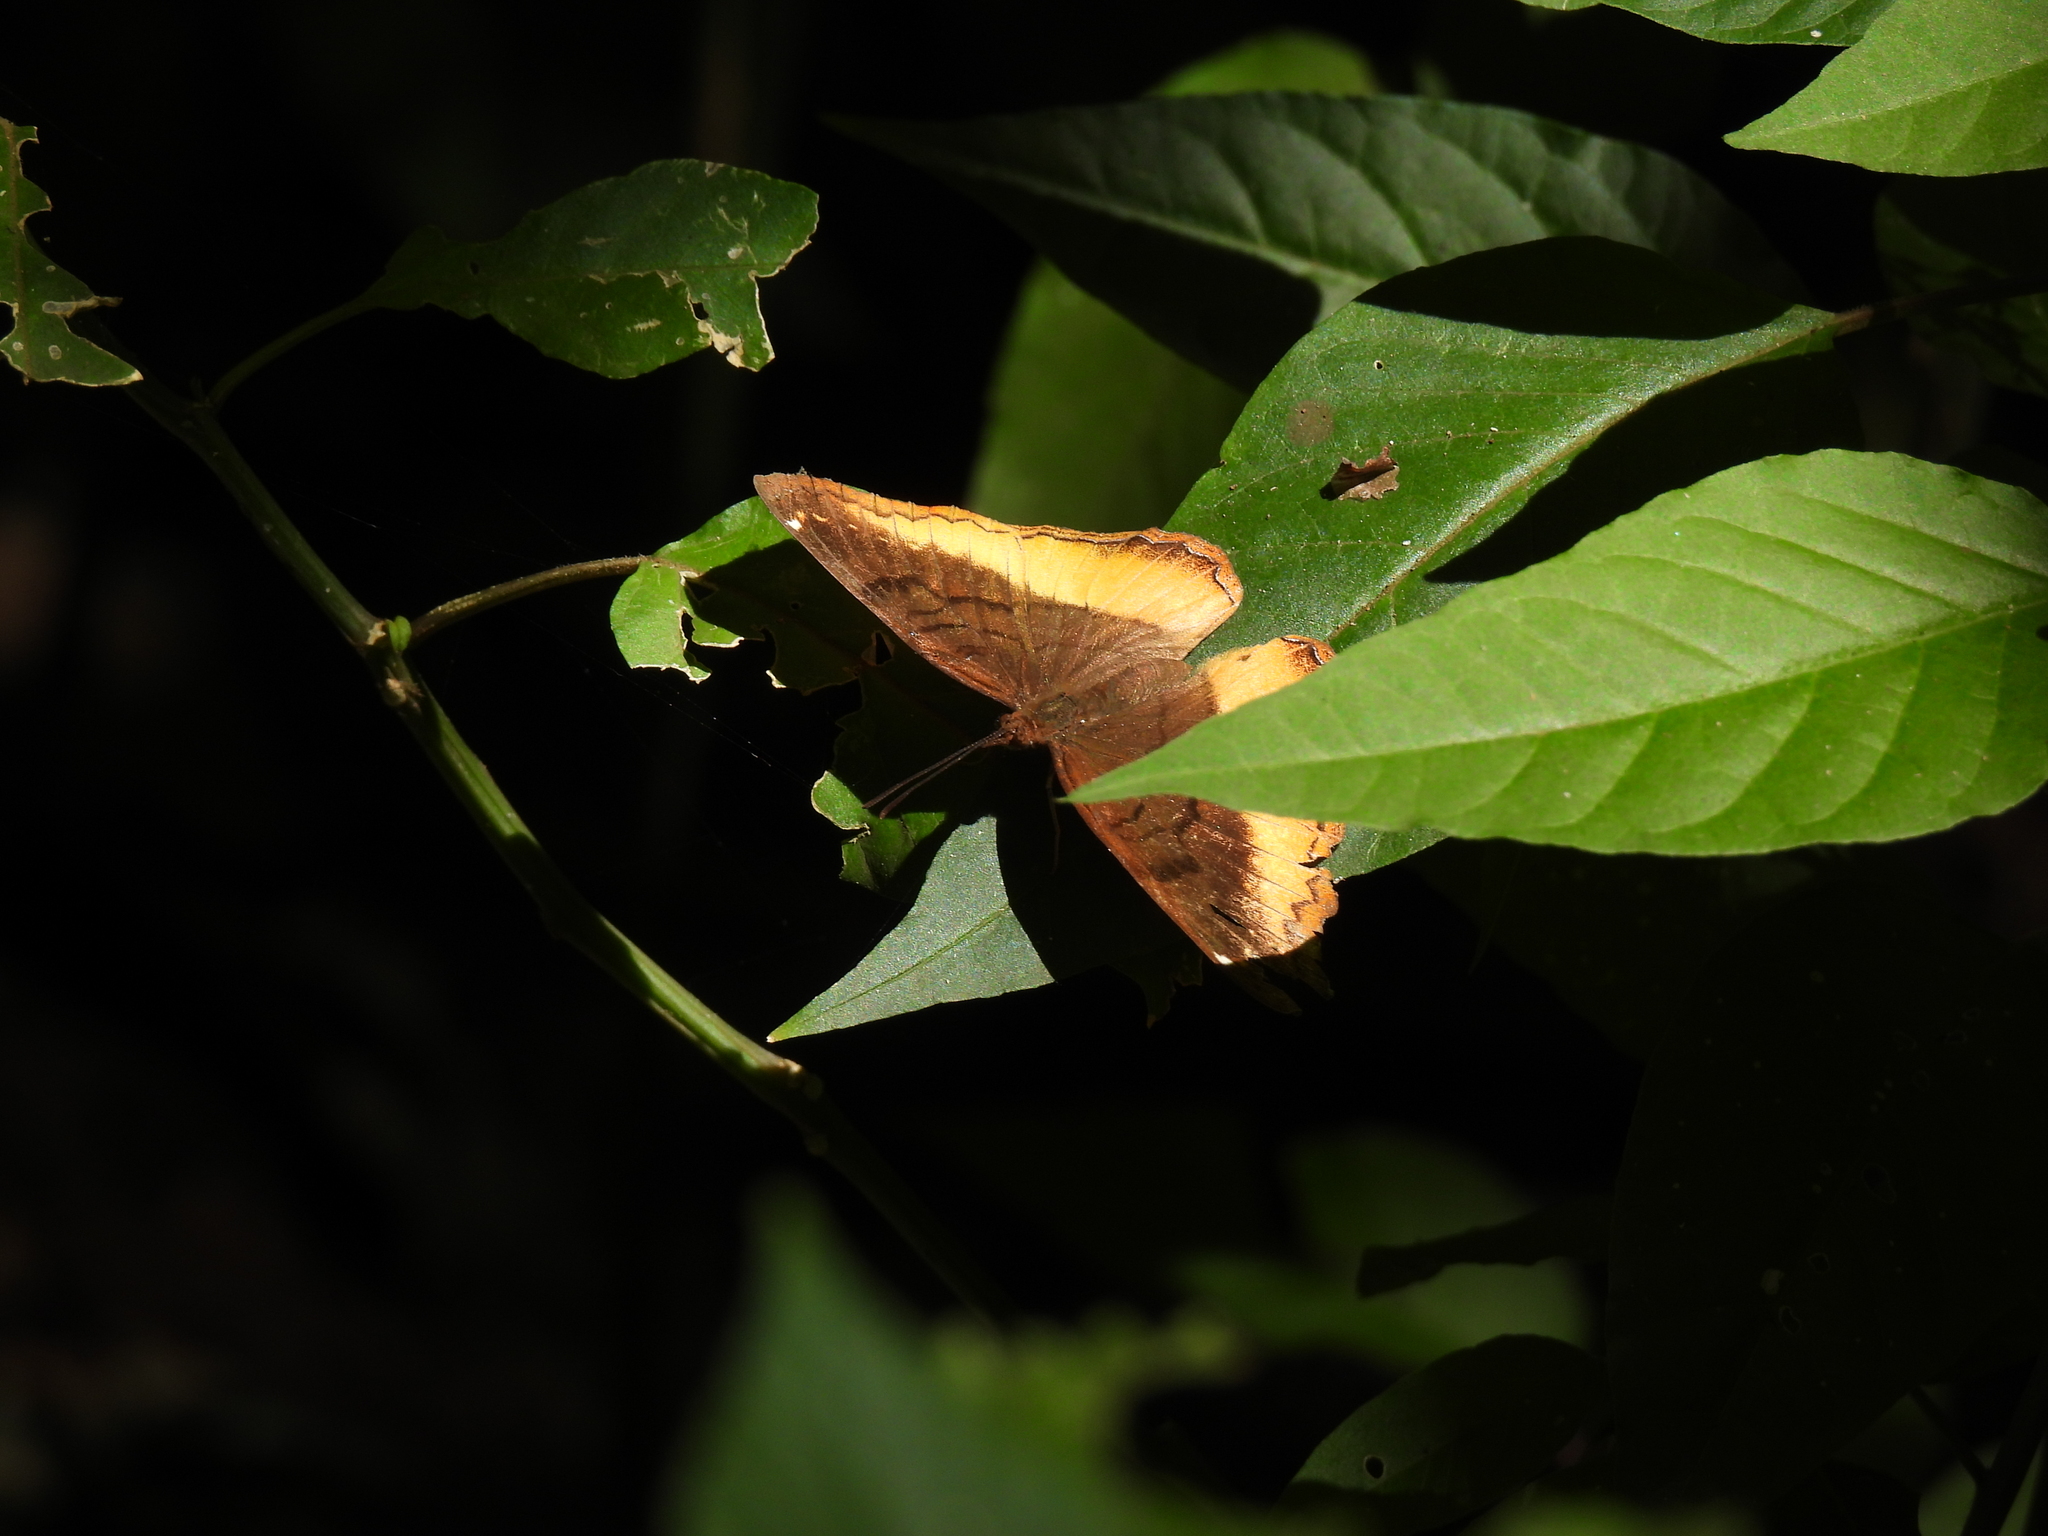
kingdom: Animalia
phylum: Arthropoda
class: Insecta
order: Lepidoptera
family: Nymphalidae
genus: Eurytela
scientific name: Eurytela dryope
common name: Golden piper
